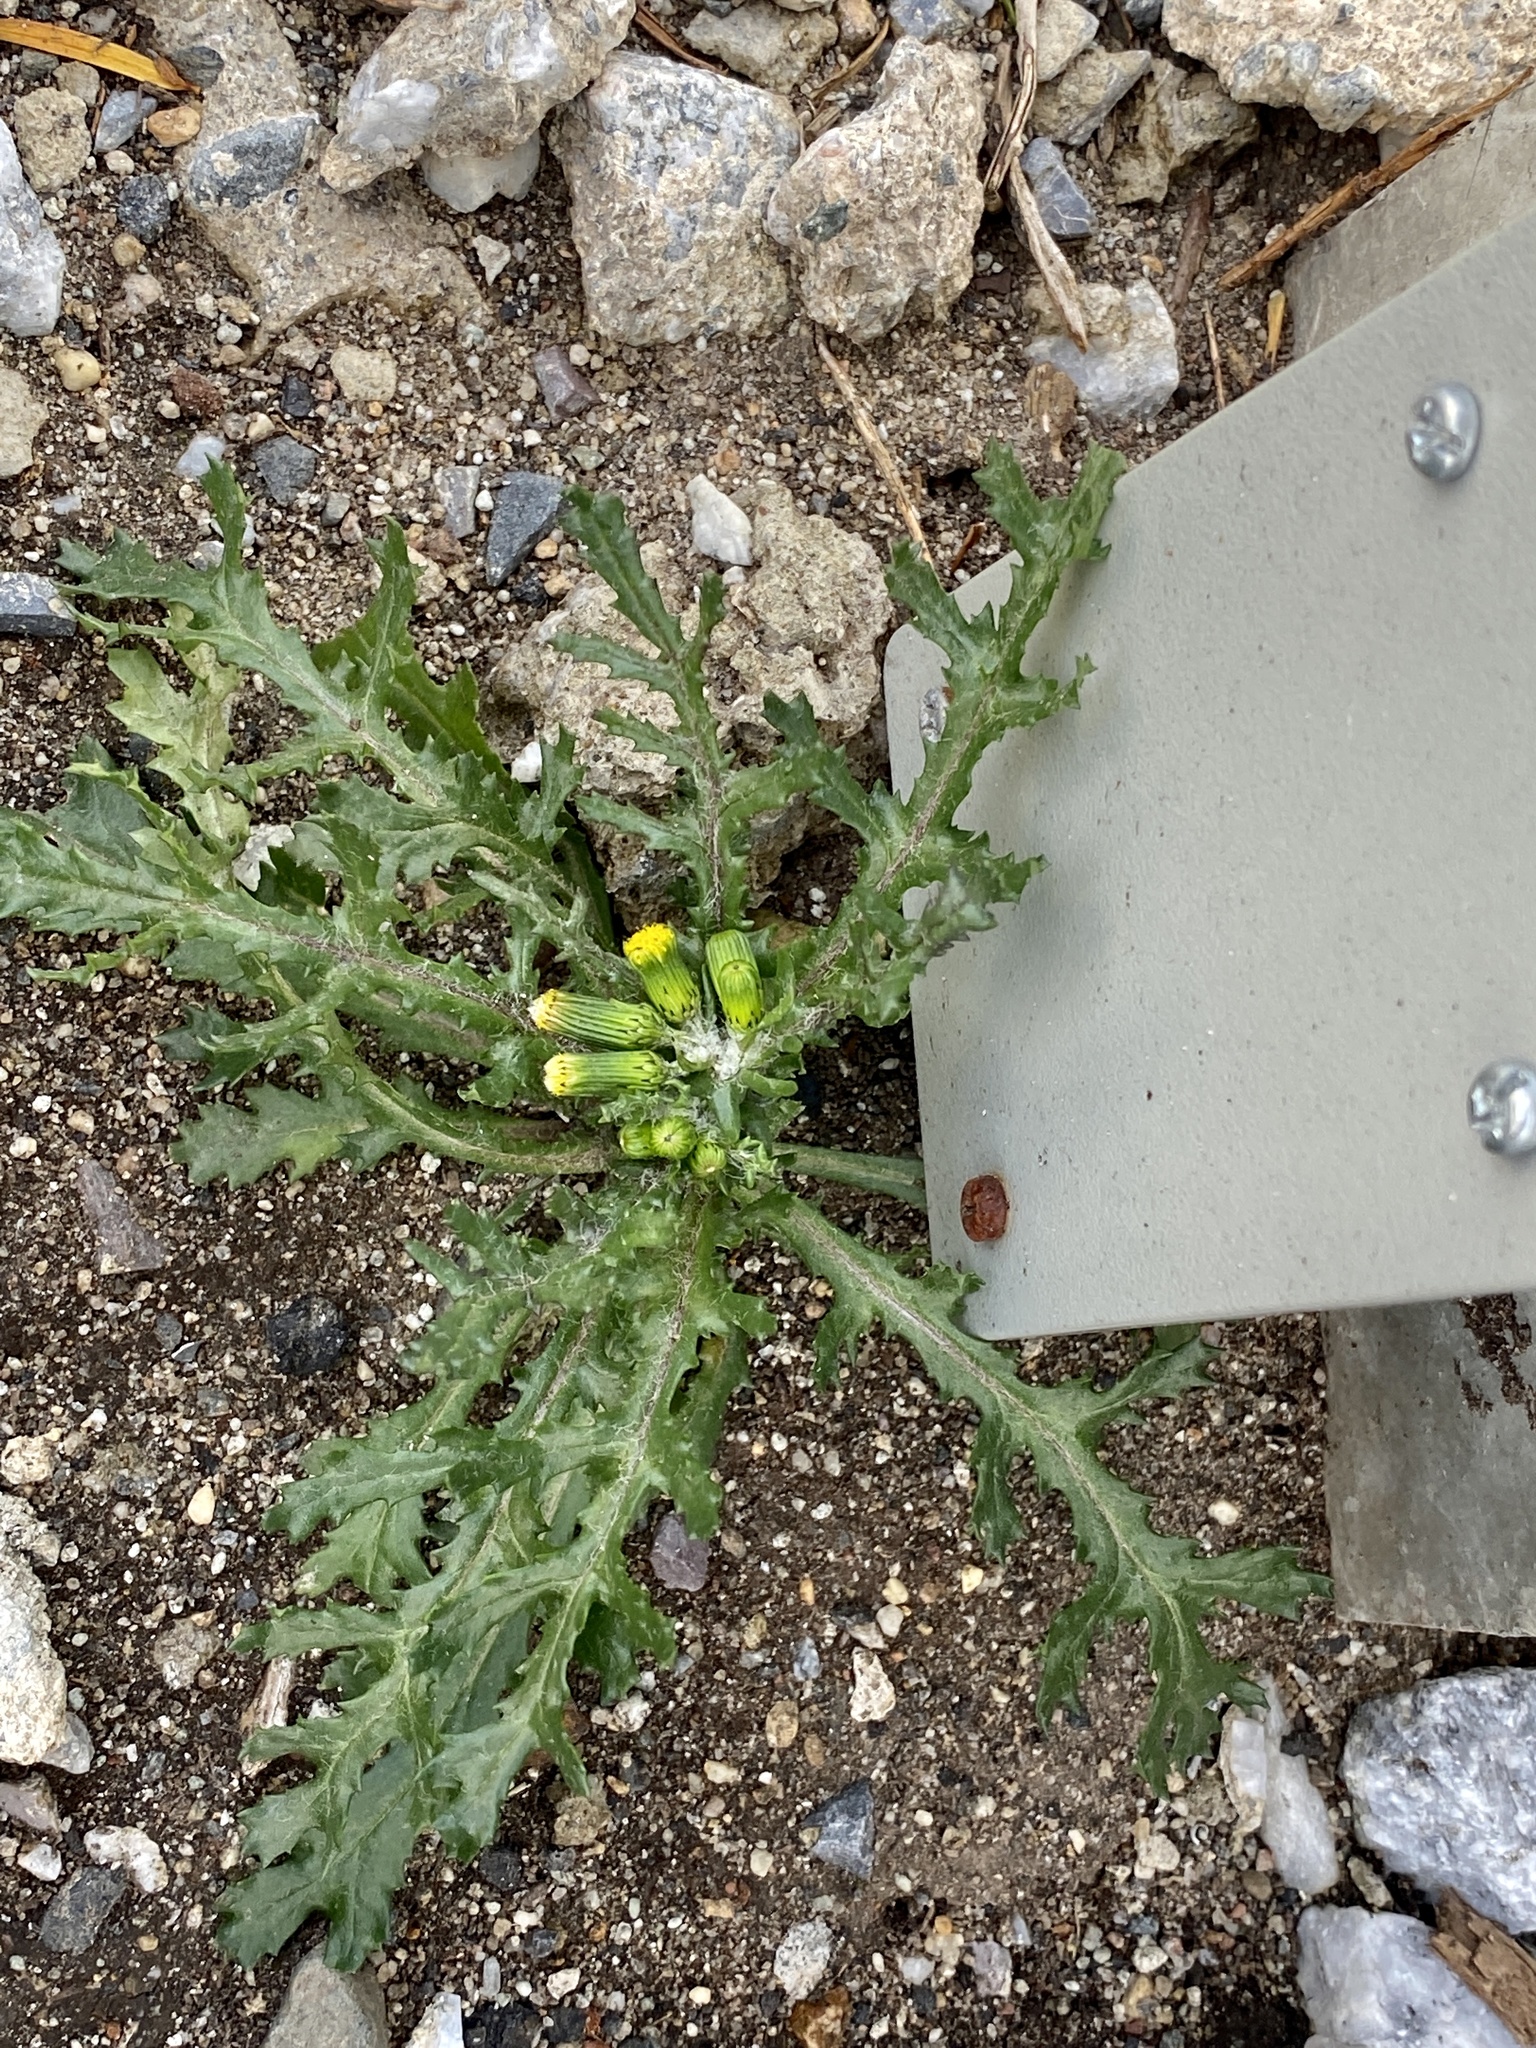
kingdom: Plantae
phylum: Tracheophyta
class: Magnoliopsida
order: Asterales
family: Asteraceae
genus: Senecio
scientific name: Senecio vulgaris
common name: Old-man-in-the-spring
